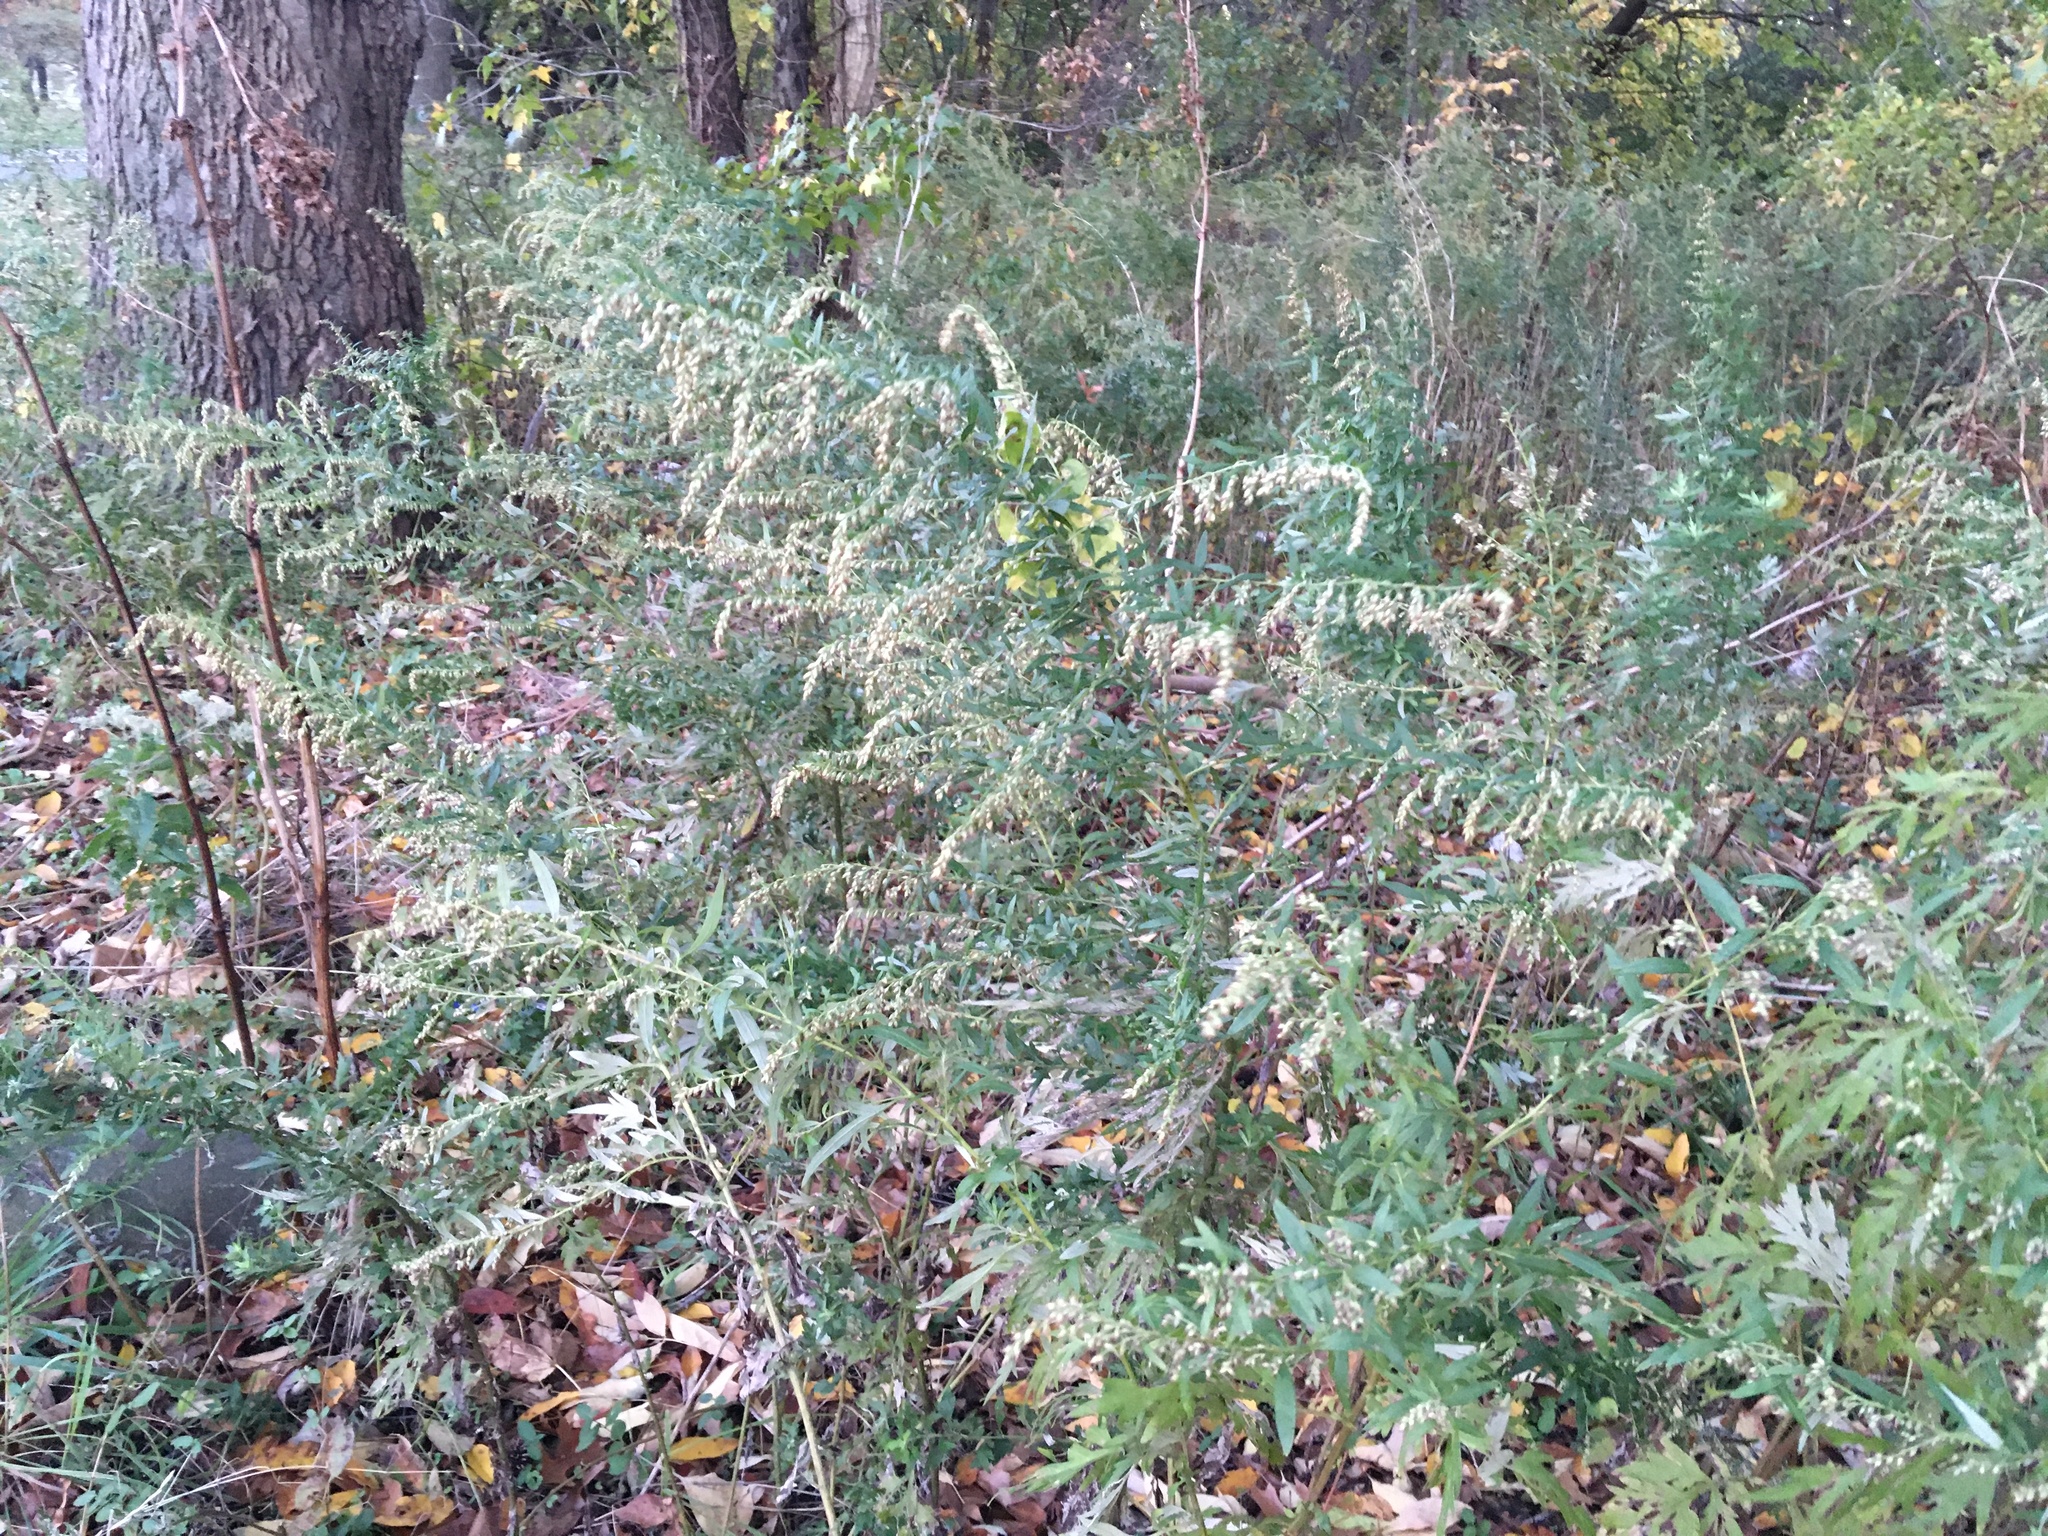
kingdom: Plantae
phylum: Tracheophyta
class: Magnoliopsida
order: Asterales
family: Asteraceae
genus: Artemisia
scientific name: Artemisia vulgaris
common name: Mugwort
